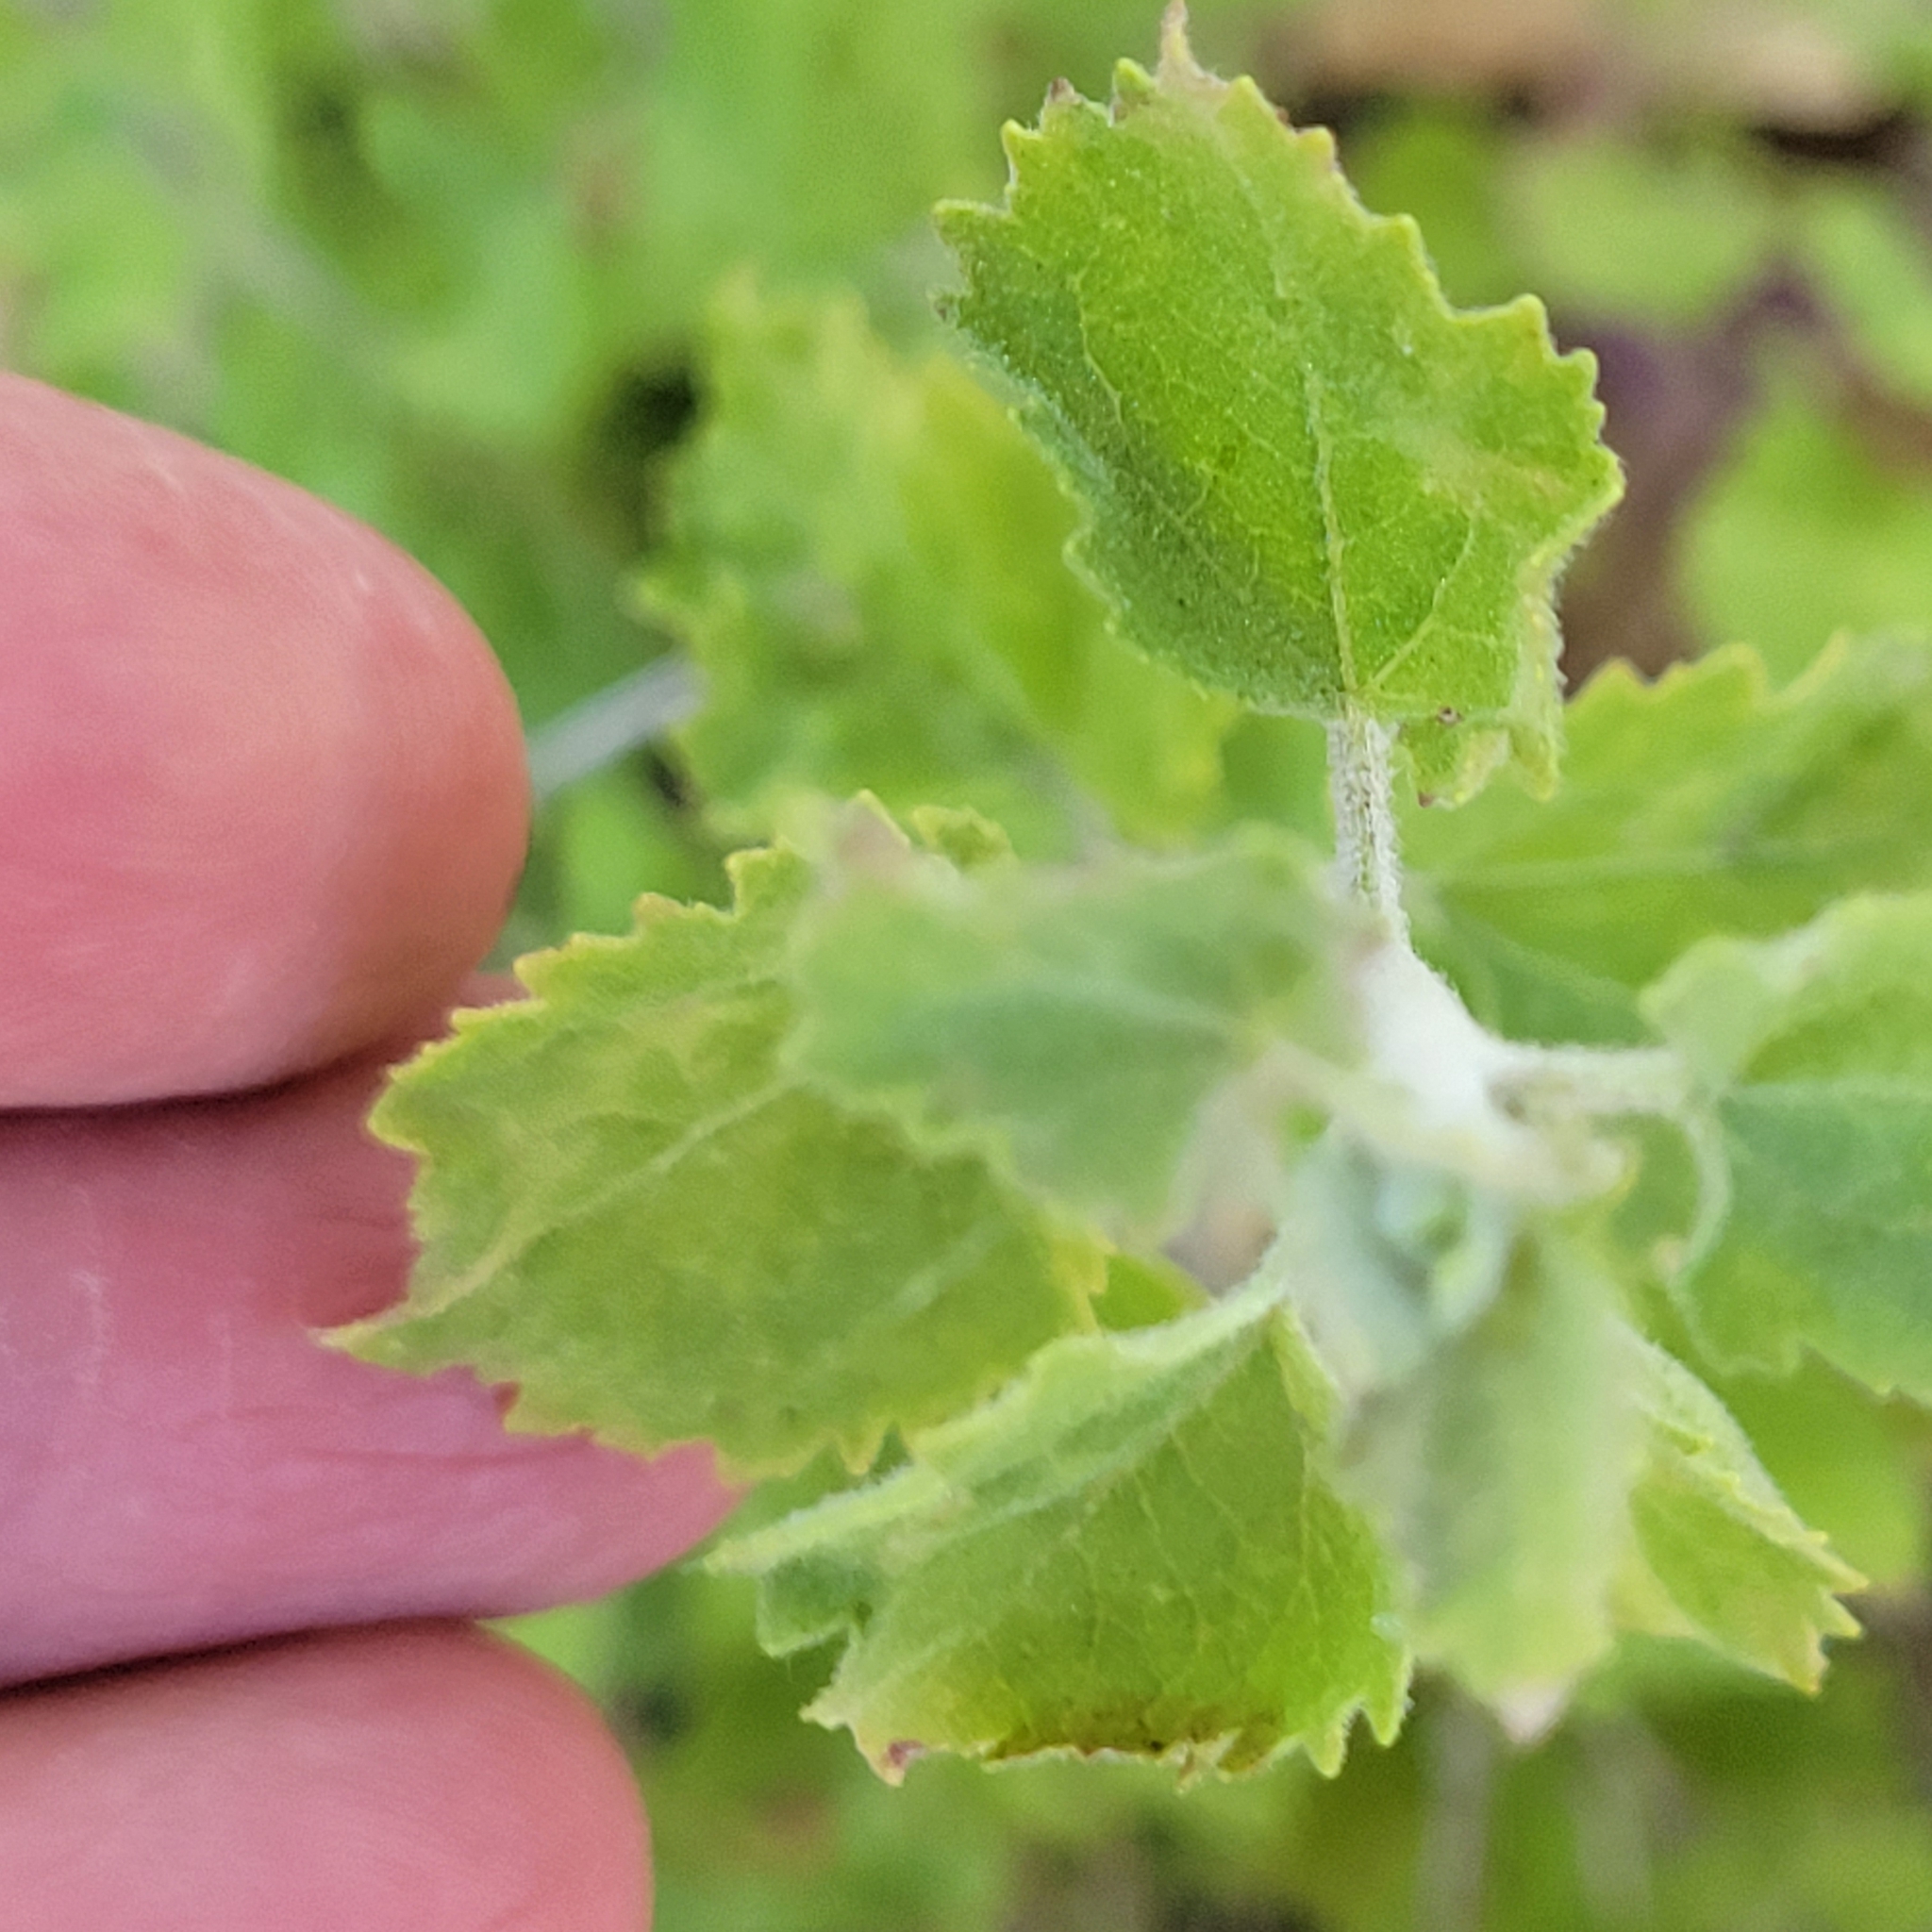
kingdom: Plantae
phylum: Tracheophyta
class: Magnoliopsida
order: Asterales
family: Asteraceae
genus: Brickellia
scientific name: Brickellia californica
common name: California brickellbush
